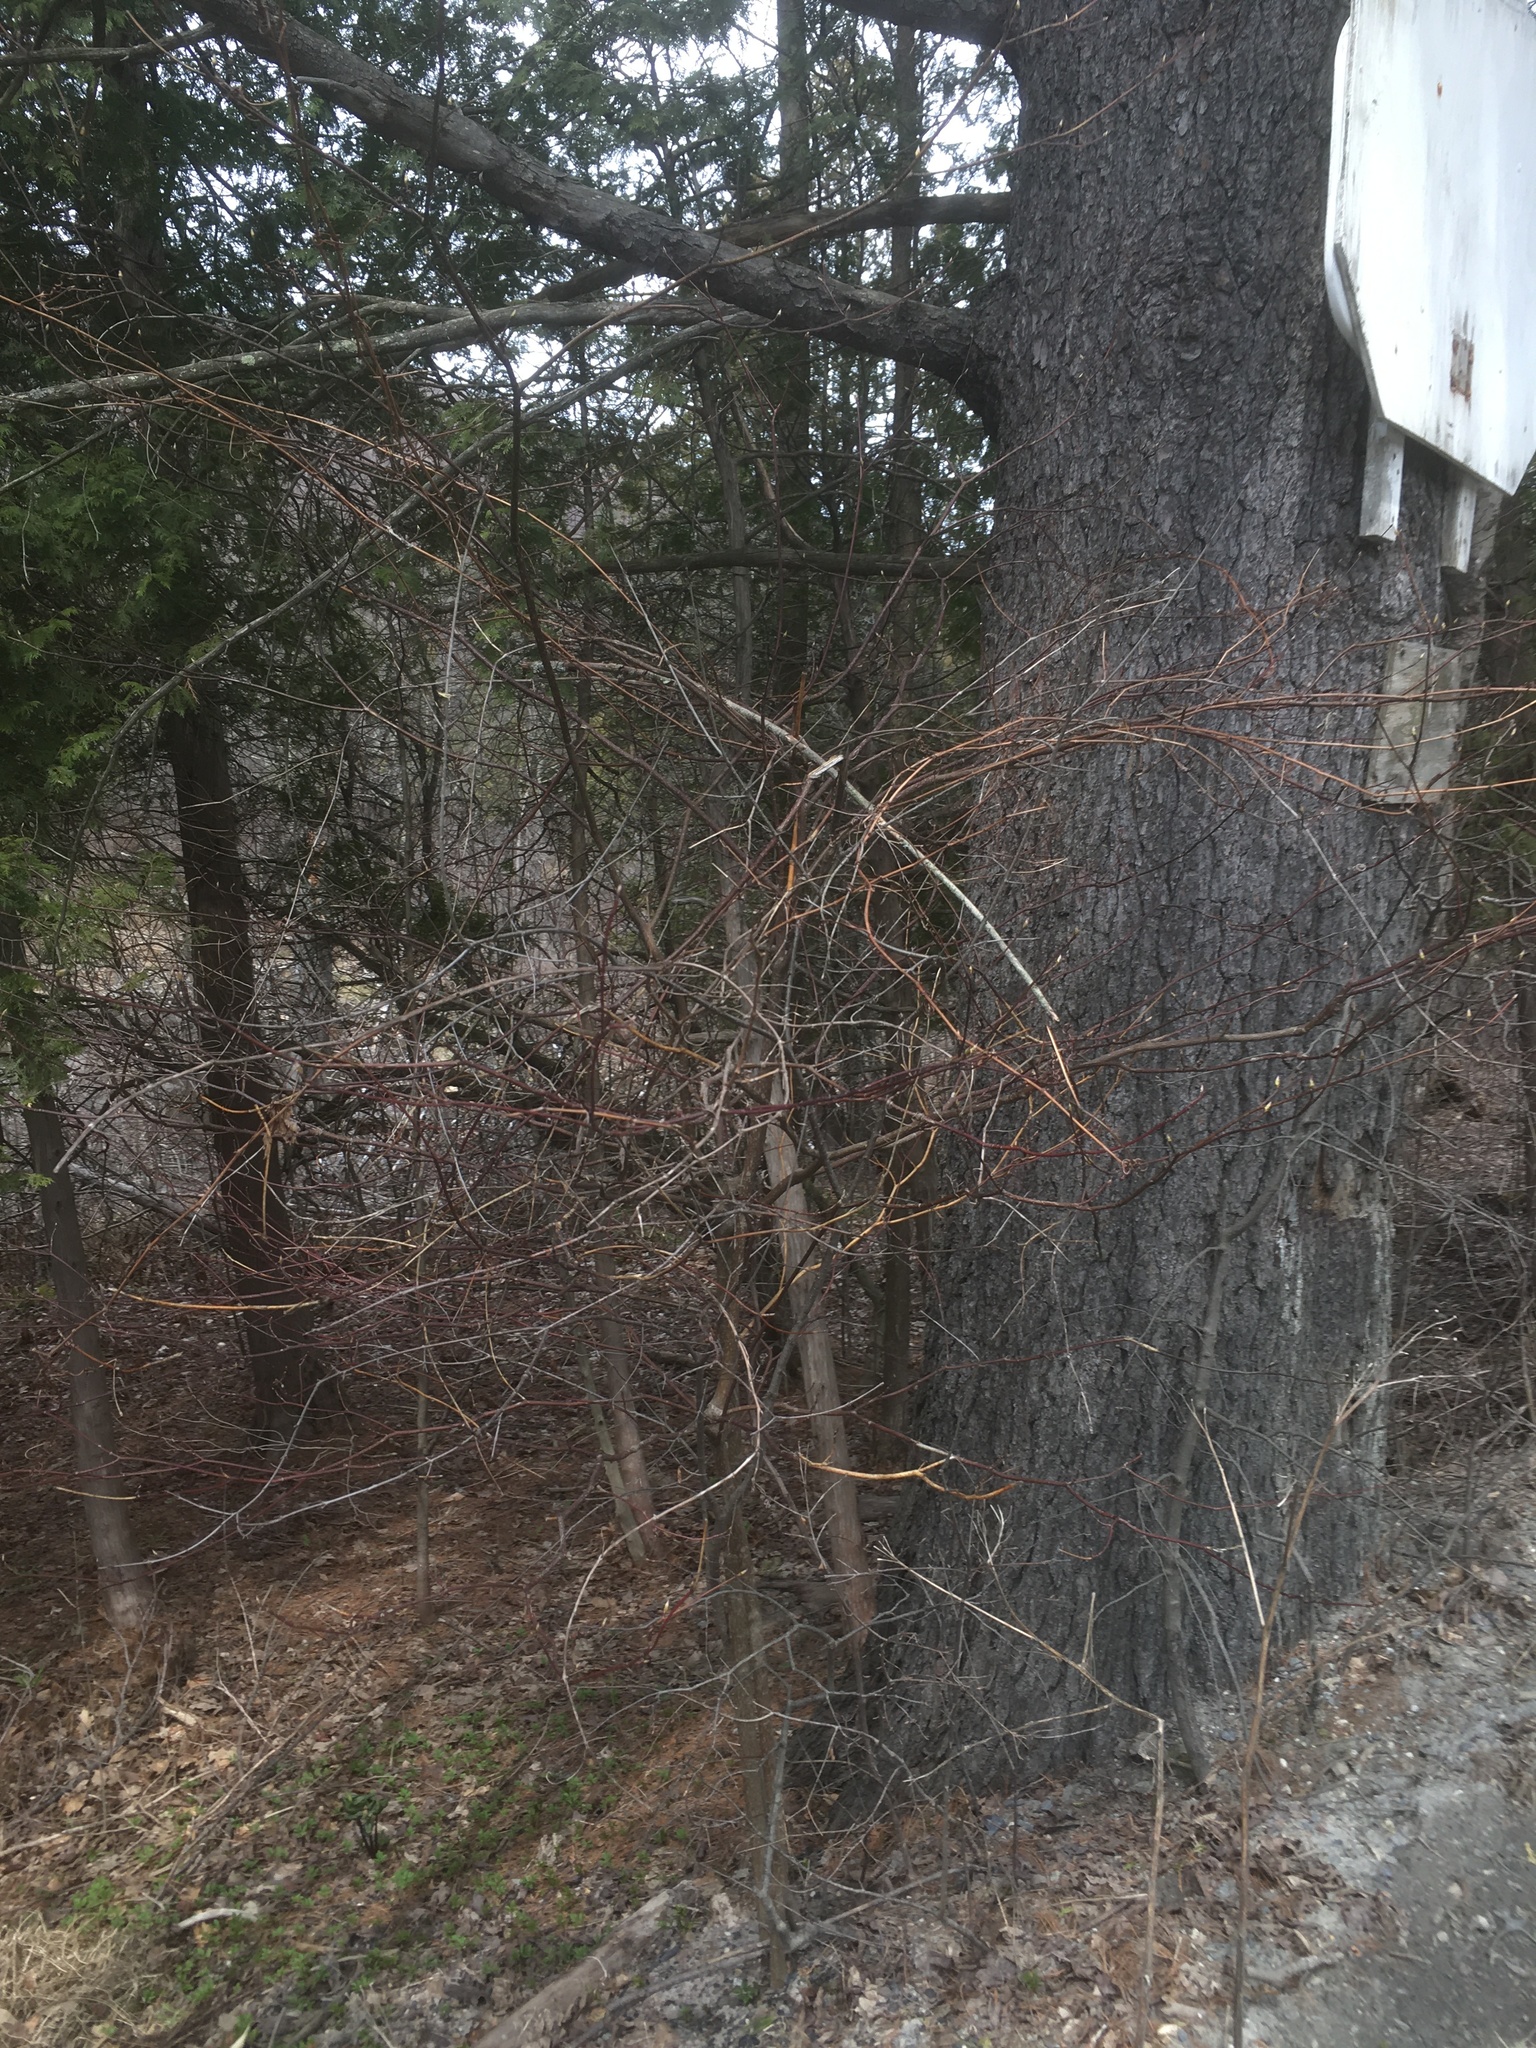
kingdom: Plantae
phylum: Tracheophyta
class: Magnoliopsida
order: Cornales
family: Cornaceae
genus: Cornus
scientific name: Cornus alternifolia
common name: Pagoda dogwood
